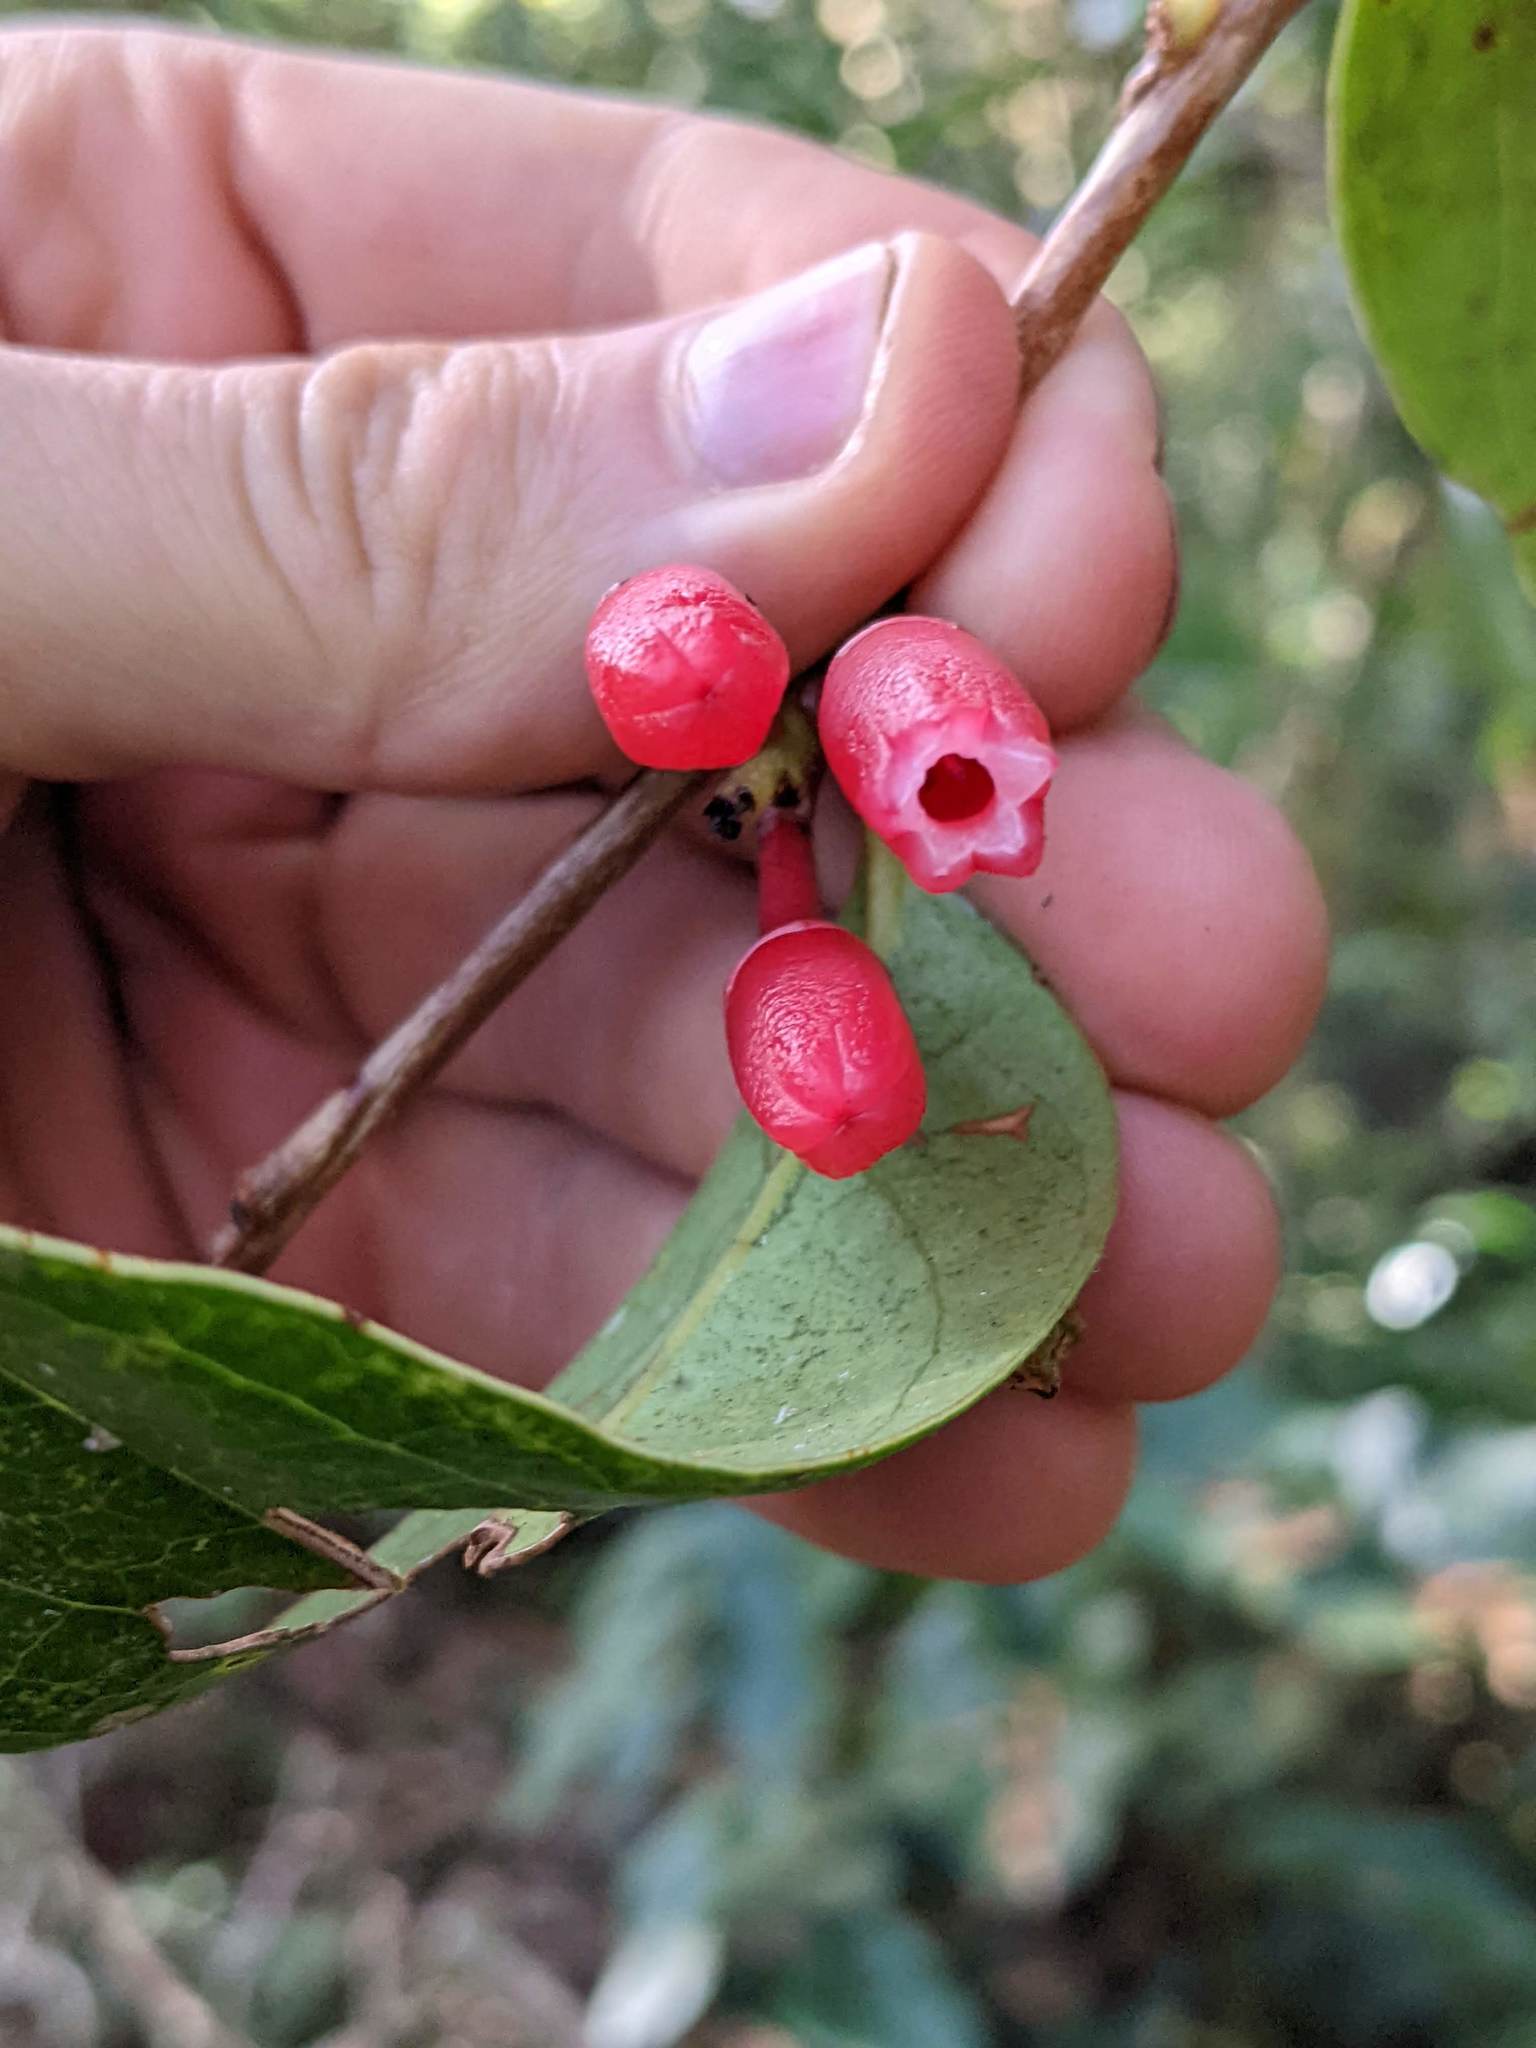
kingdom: Plantae
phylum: Tracheophyta
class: Magnoliopsida
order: Ericales
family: Ericaceae
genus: Macleania
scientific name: Macleania rupestris
